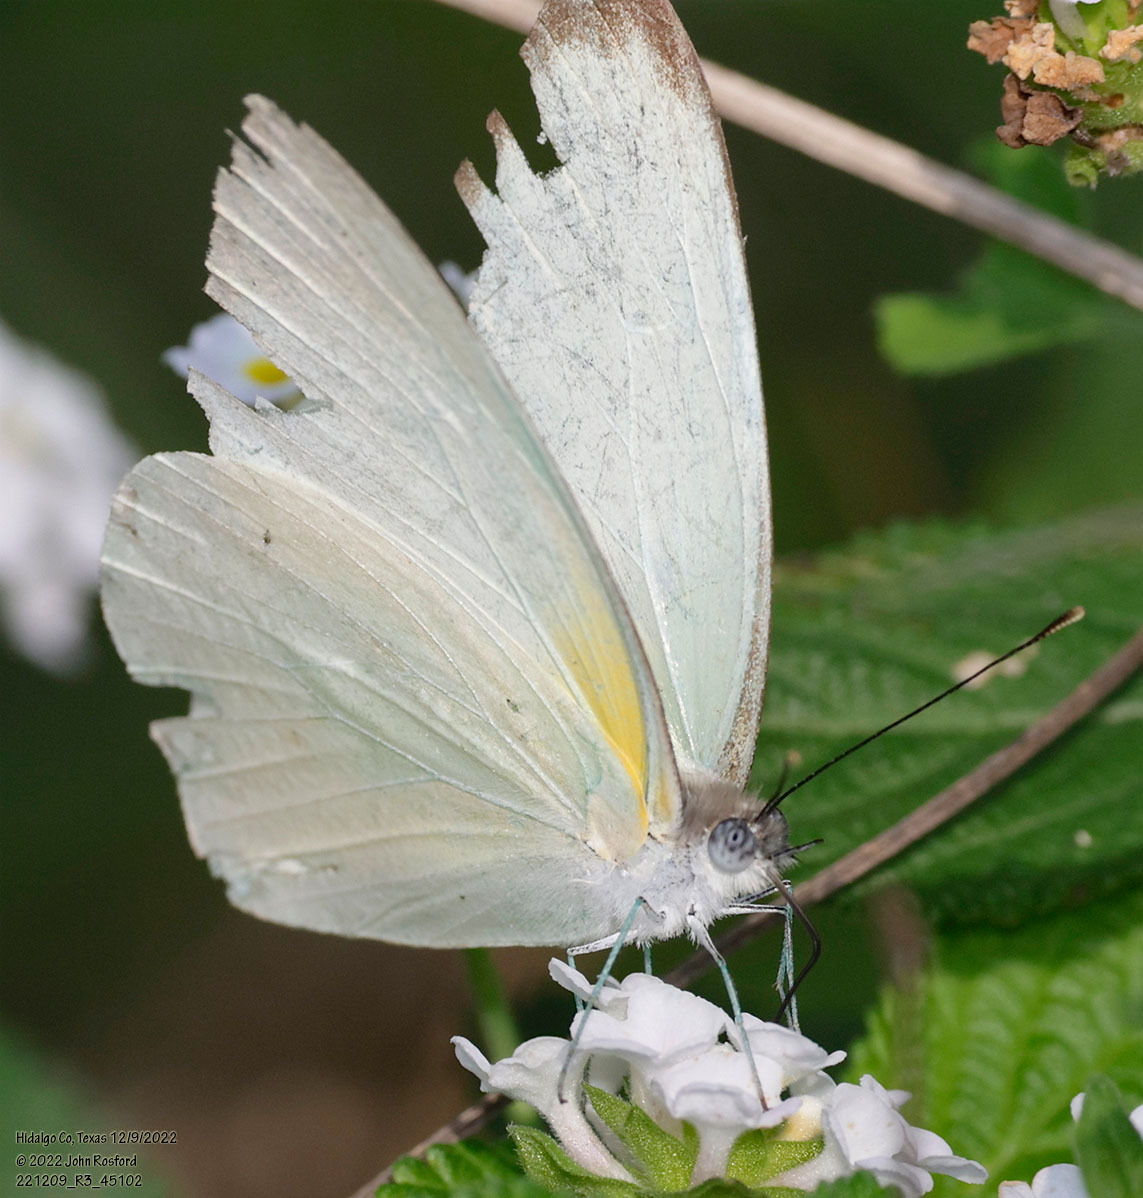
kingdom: Animalia
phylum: Arthropoda
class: Insecta
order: Lepidoptera
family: Pieridae
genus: Glutophrissa
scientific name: Glutophrissa drusilla
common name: Florida white
